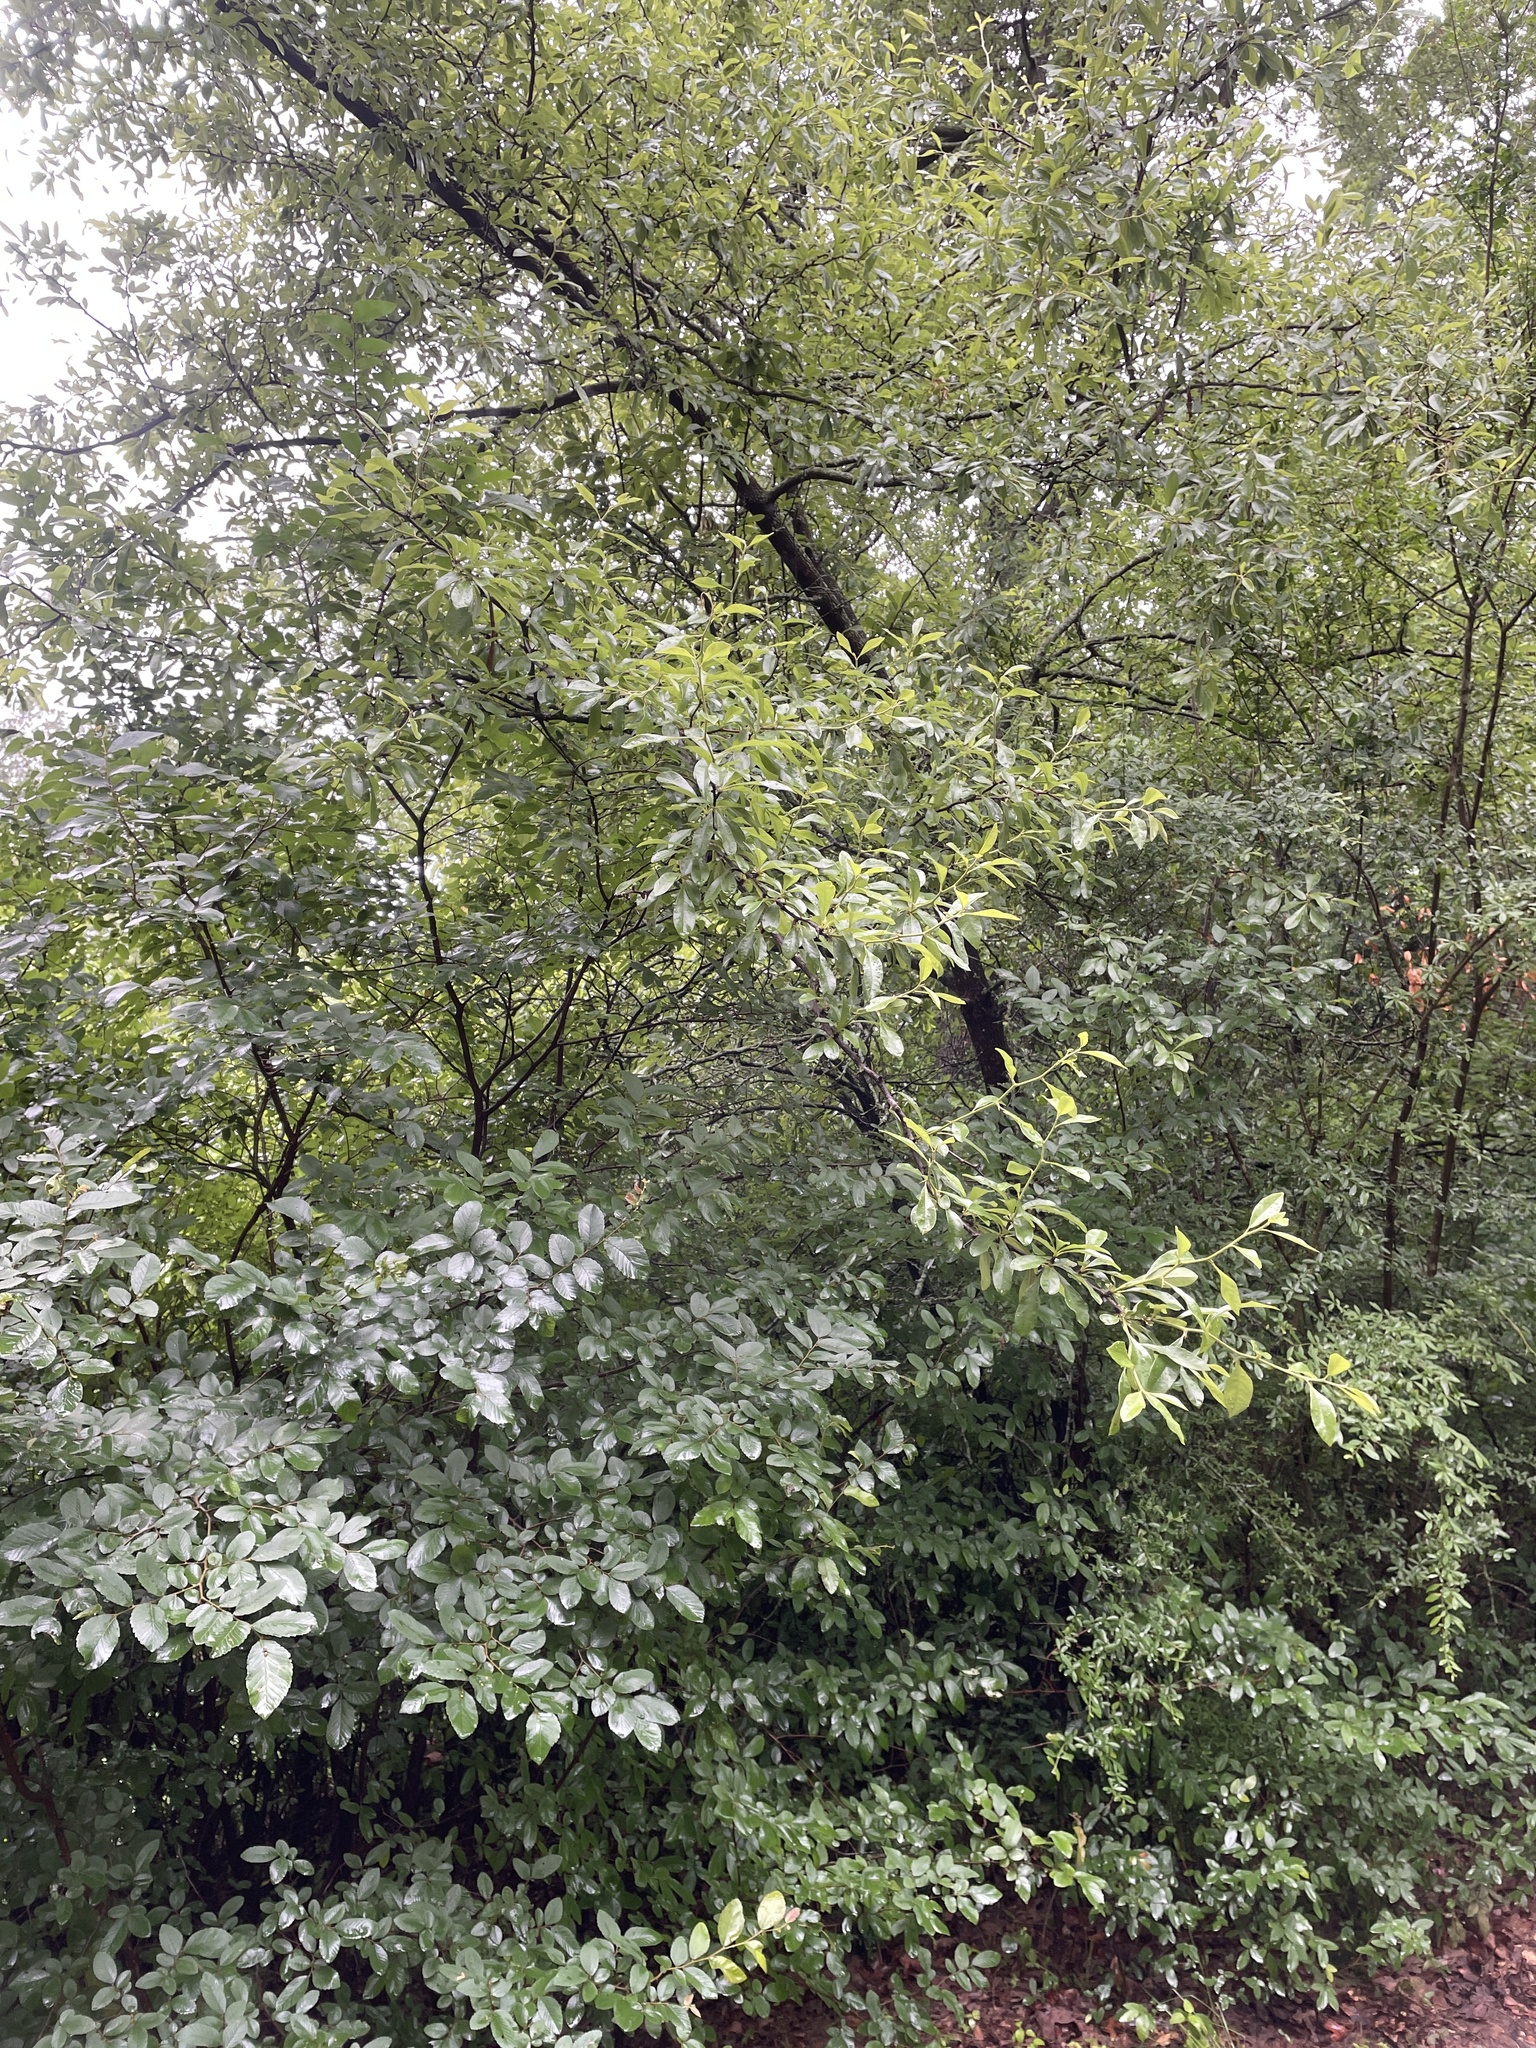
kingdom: Plantae
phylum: Tracheophyta
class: Magnoliopsida
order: Ericales
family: Sapotaceae
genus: Sideroxylon
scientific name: Sideroxylon lanuginosum
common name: Chittamwood
